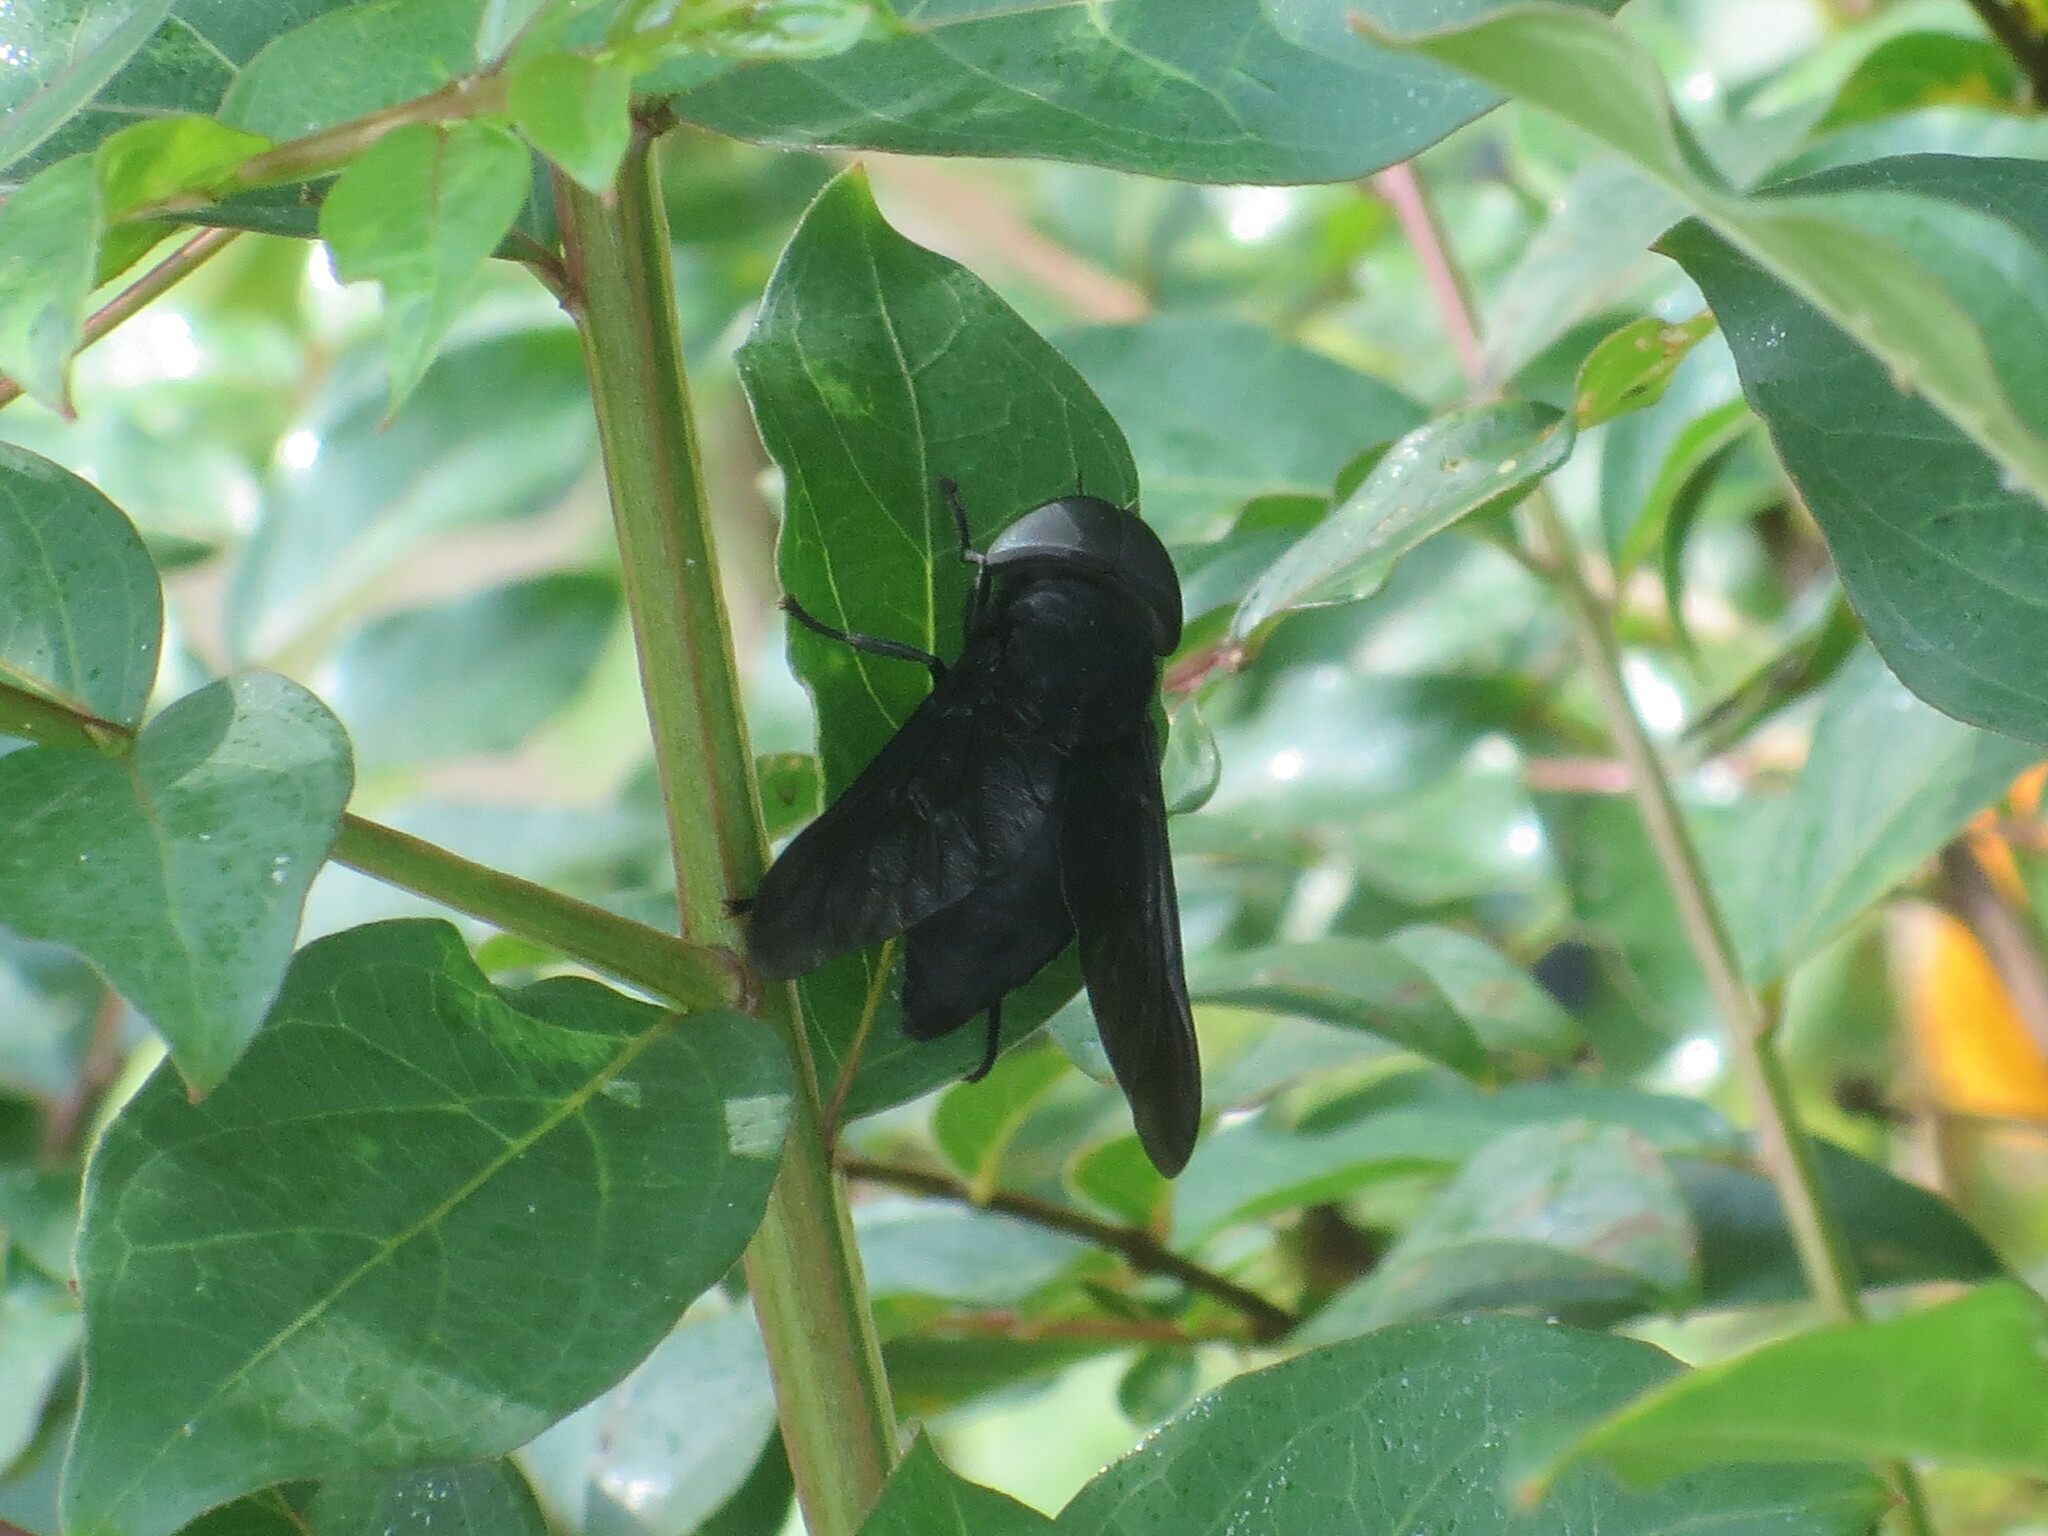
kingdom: Animalia
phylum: Arthropoda
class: Insecta
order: Diptera
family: Tabanidae
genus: Tabanus
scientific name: Tabanus atratus
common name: Black horse fly
